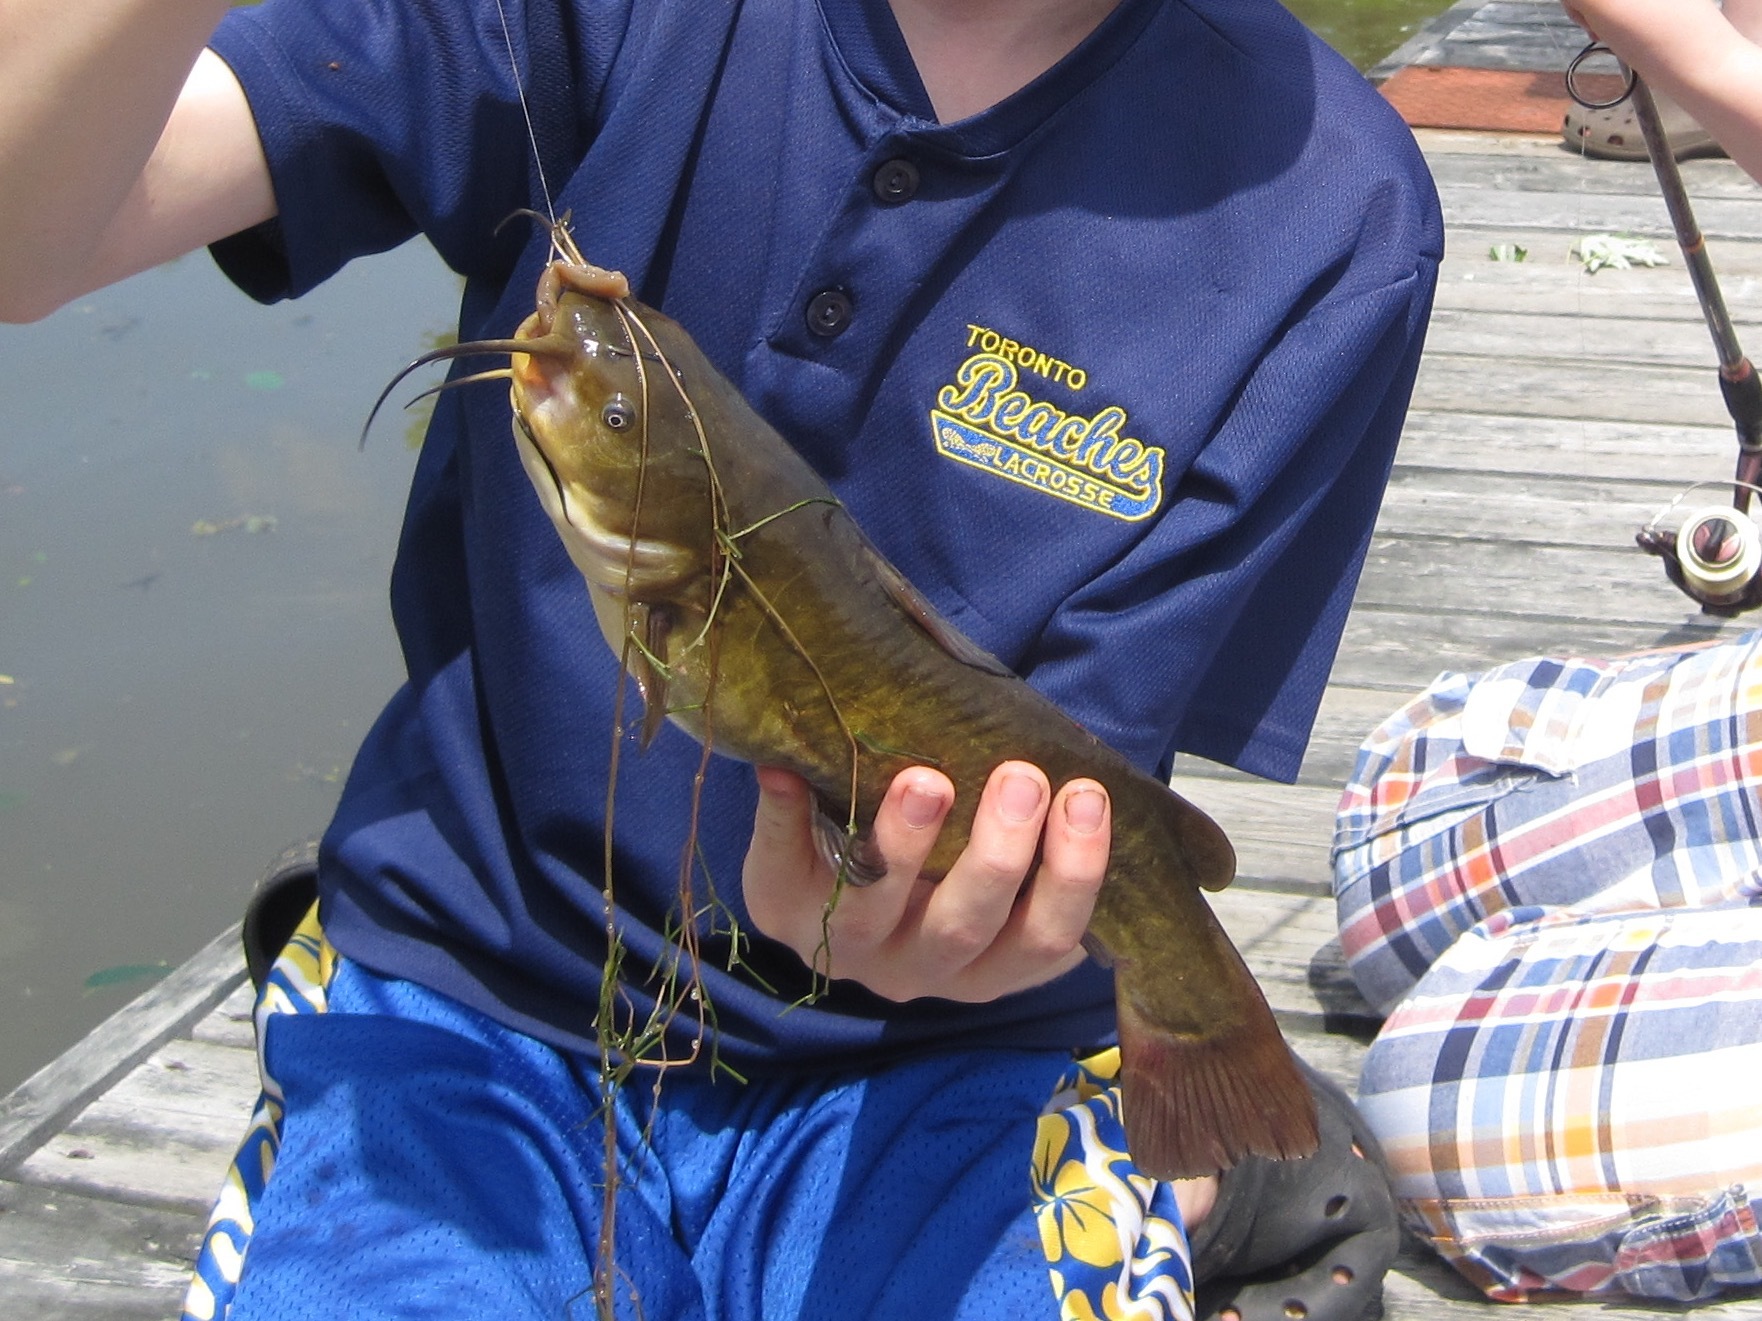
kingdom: Animalia
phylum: Chordata
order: Siluriformes
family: Ictaluridae
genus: Ameiurus
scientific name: Ameiurus nebulosus
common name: Brown bullhead
